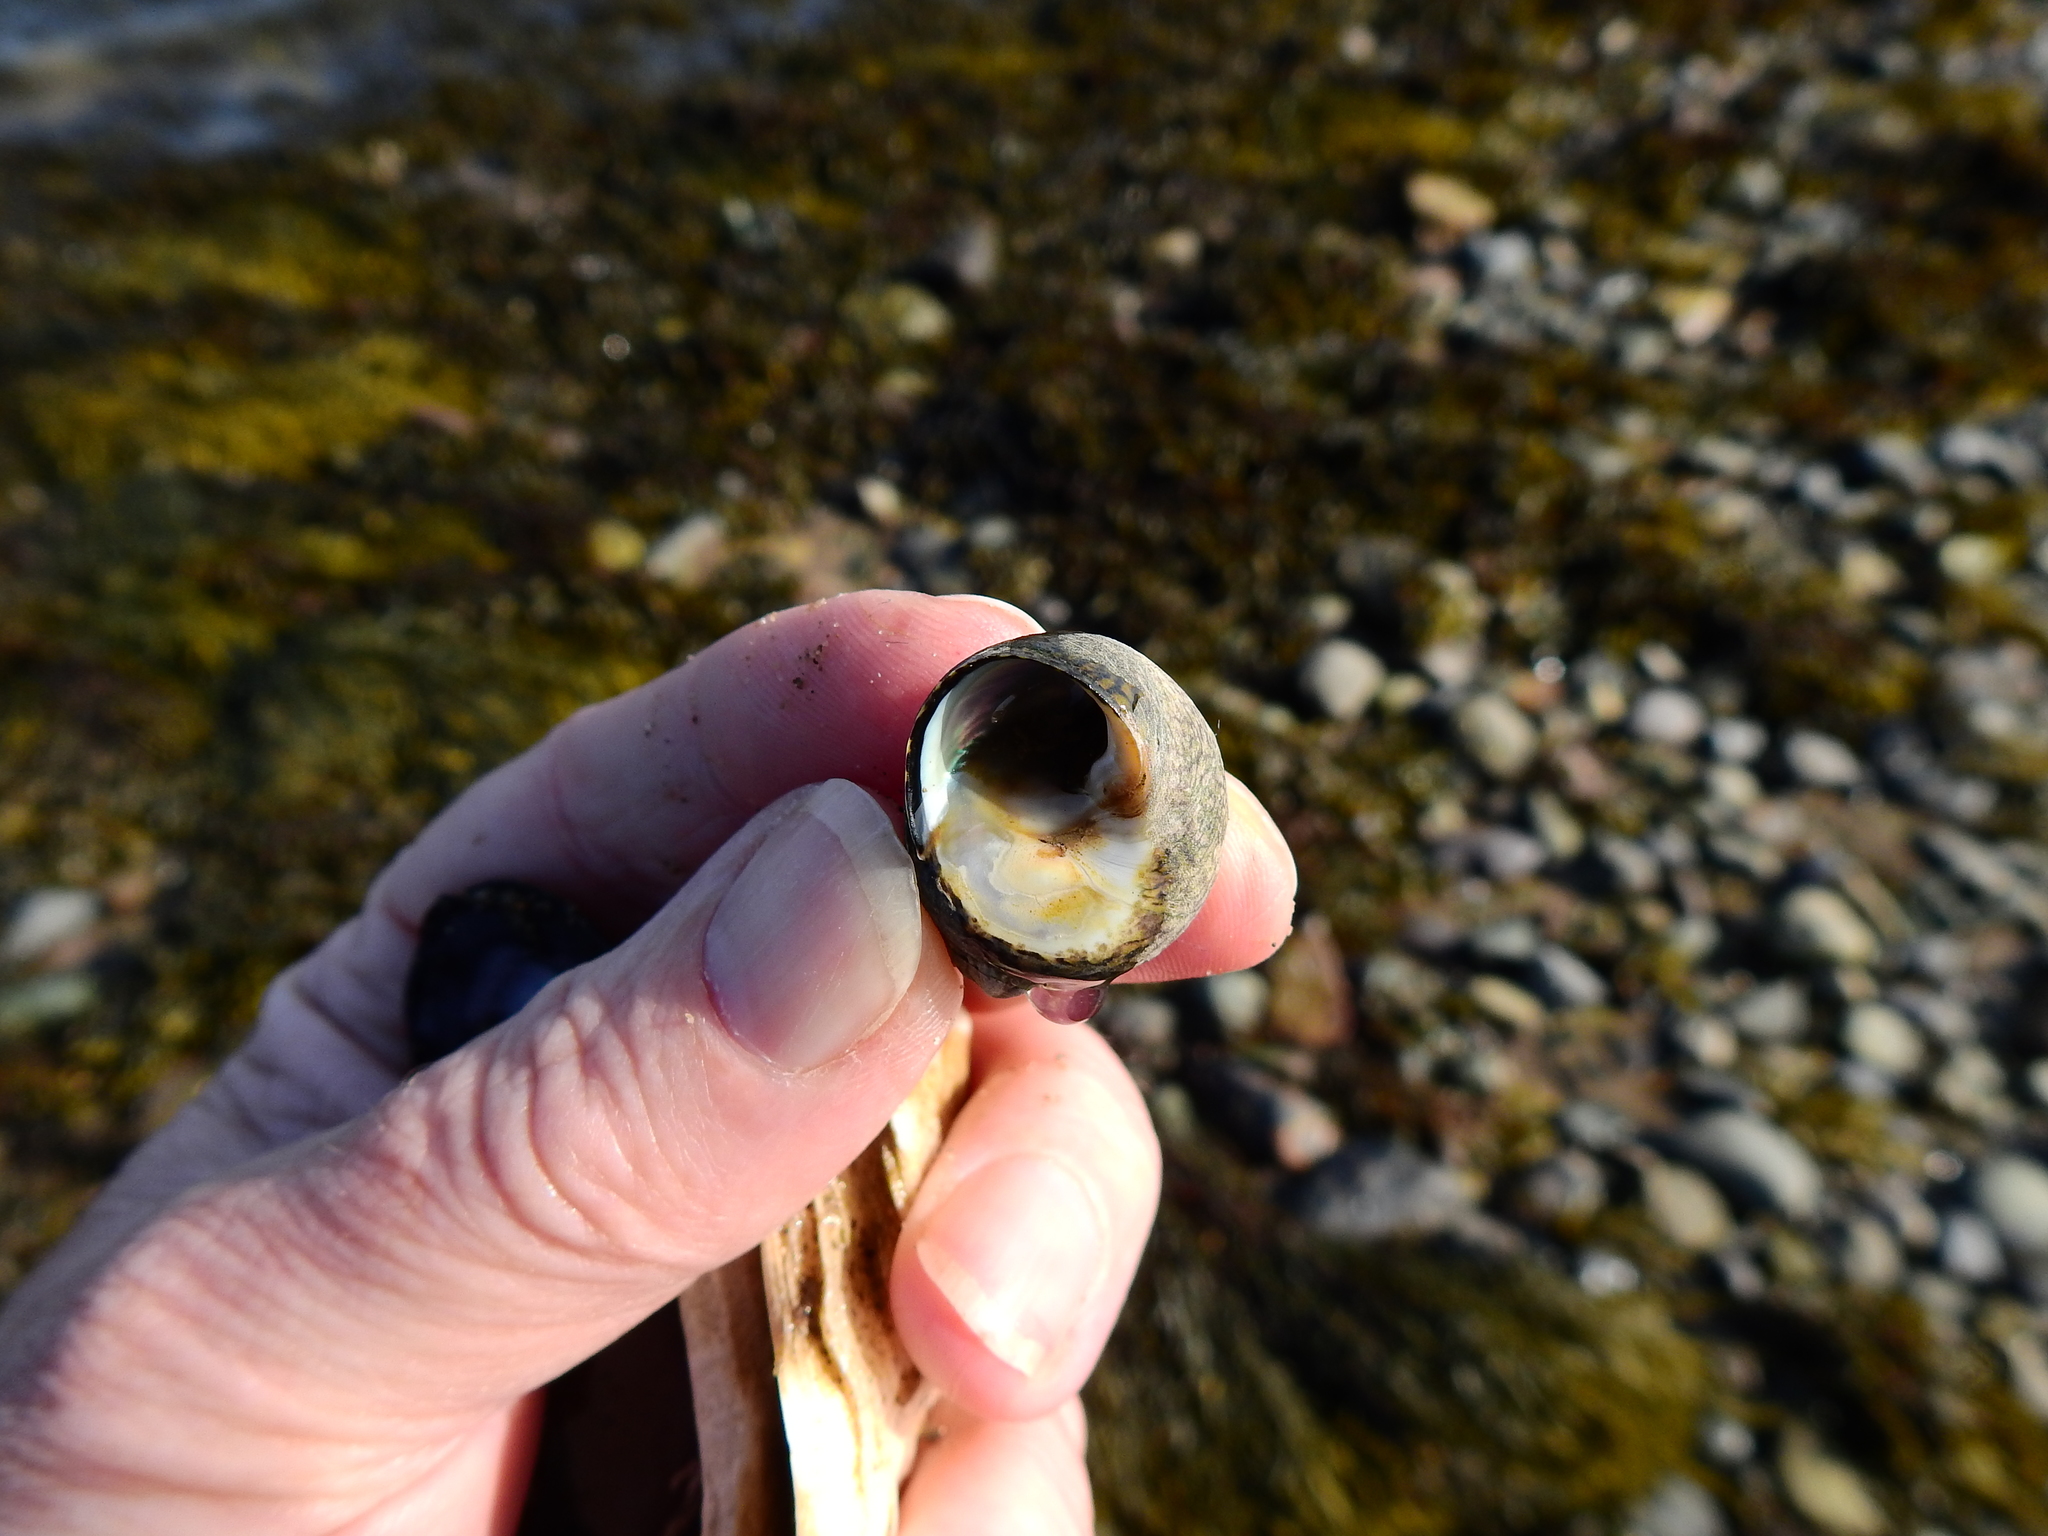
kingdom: Animalia
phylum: Mollusca
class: Gastropoda
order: Trochida
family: Trochidae
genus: Phorcus
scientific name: Phorcus lineatus
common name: Toothed top shell
